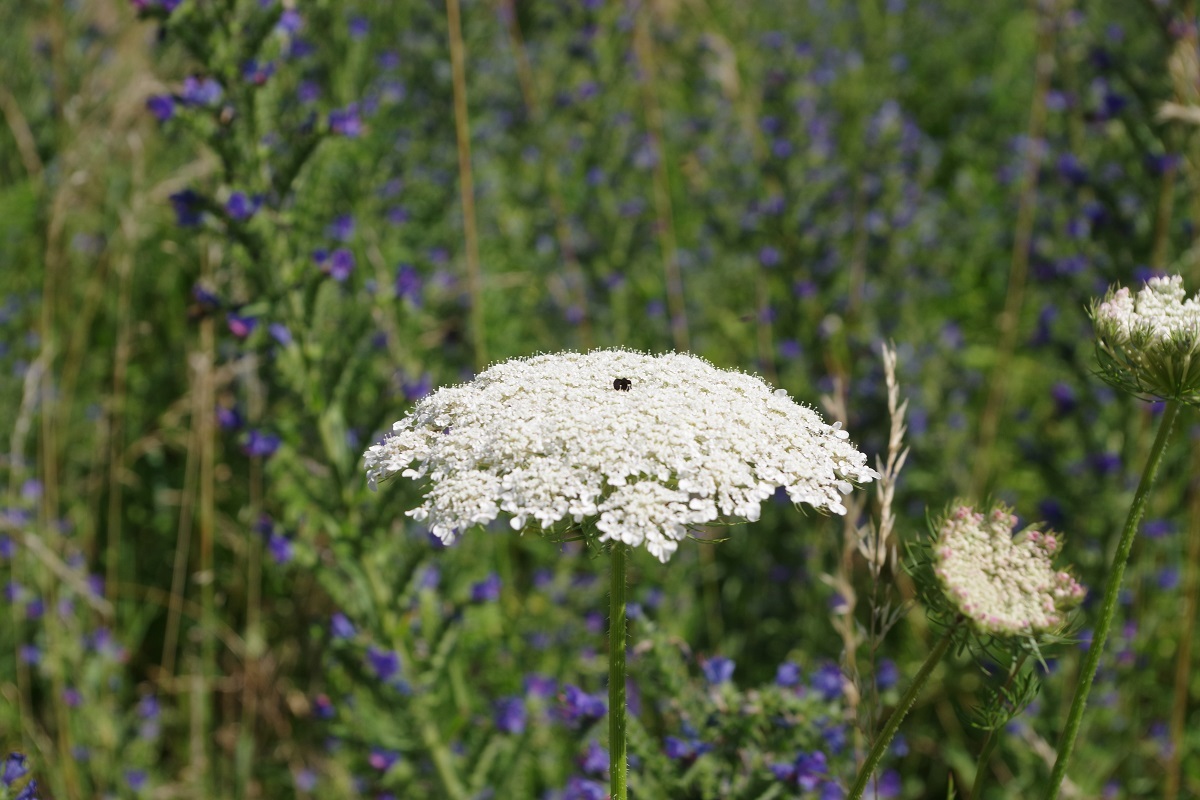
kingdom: Plantae
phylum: Tracheophyta
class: Magnoliopsida
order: Apiales
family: Apiaceae
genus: Daucus
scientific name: Daucus carota
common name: Wild carrot
